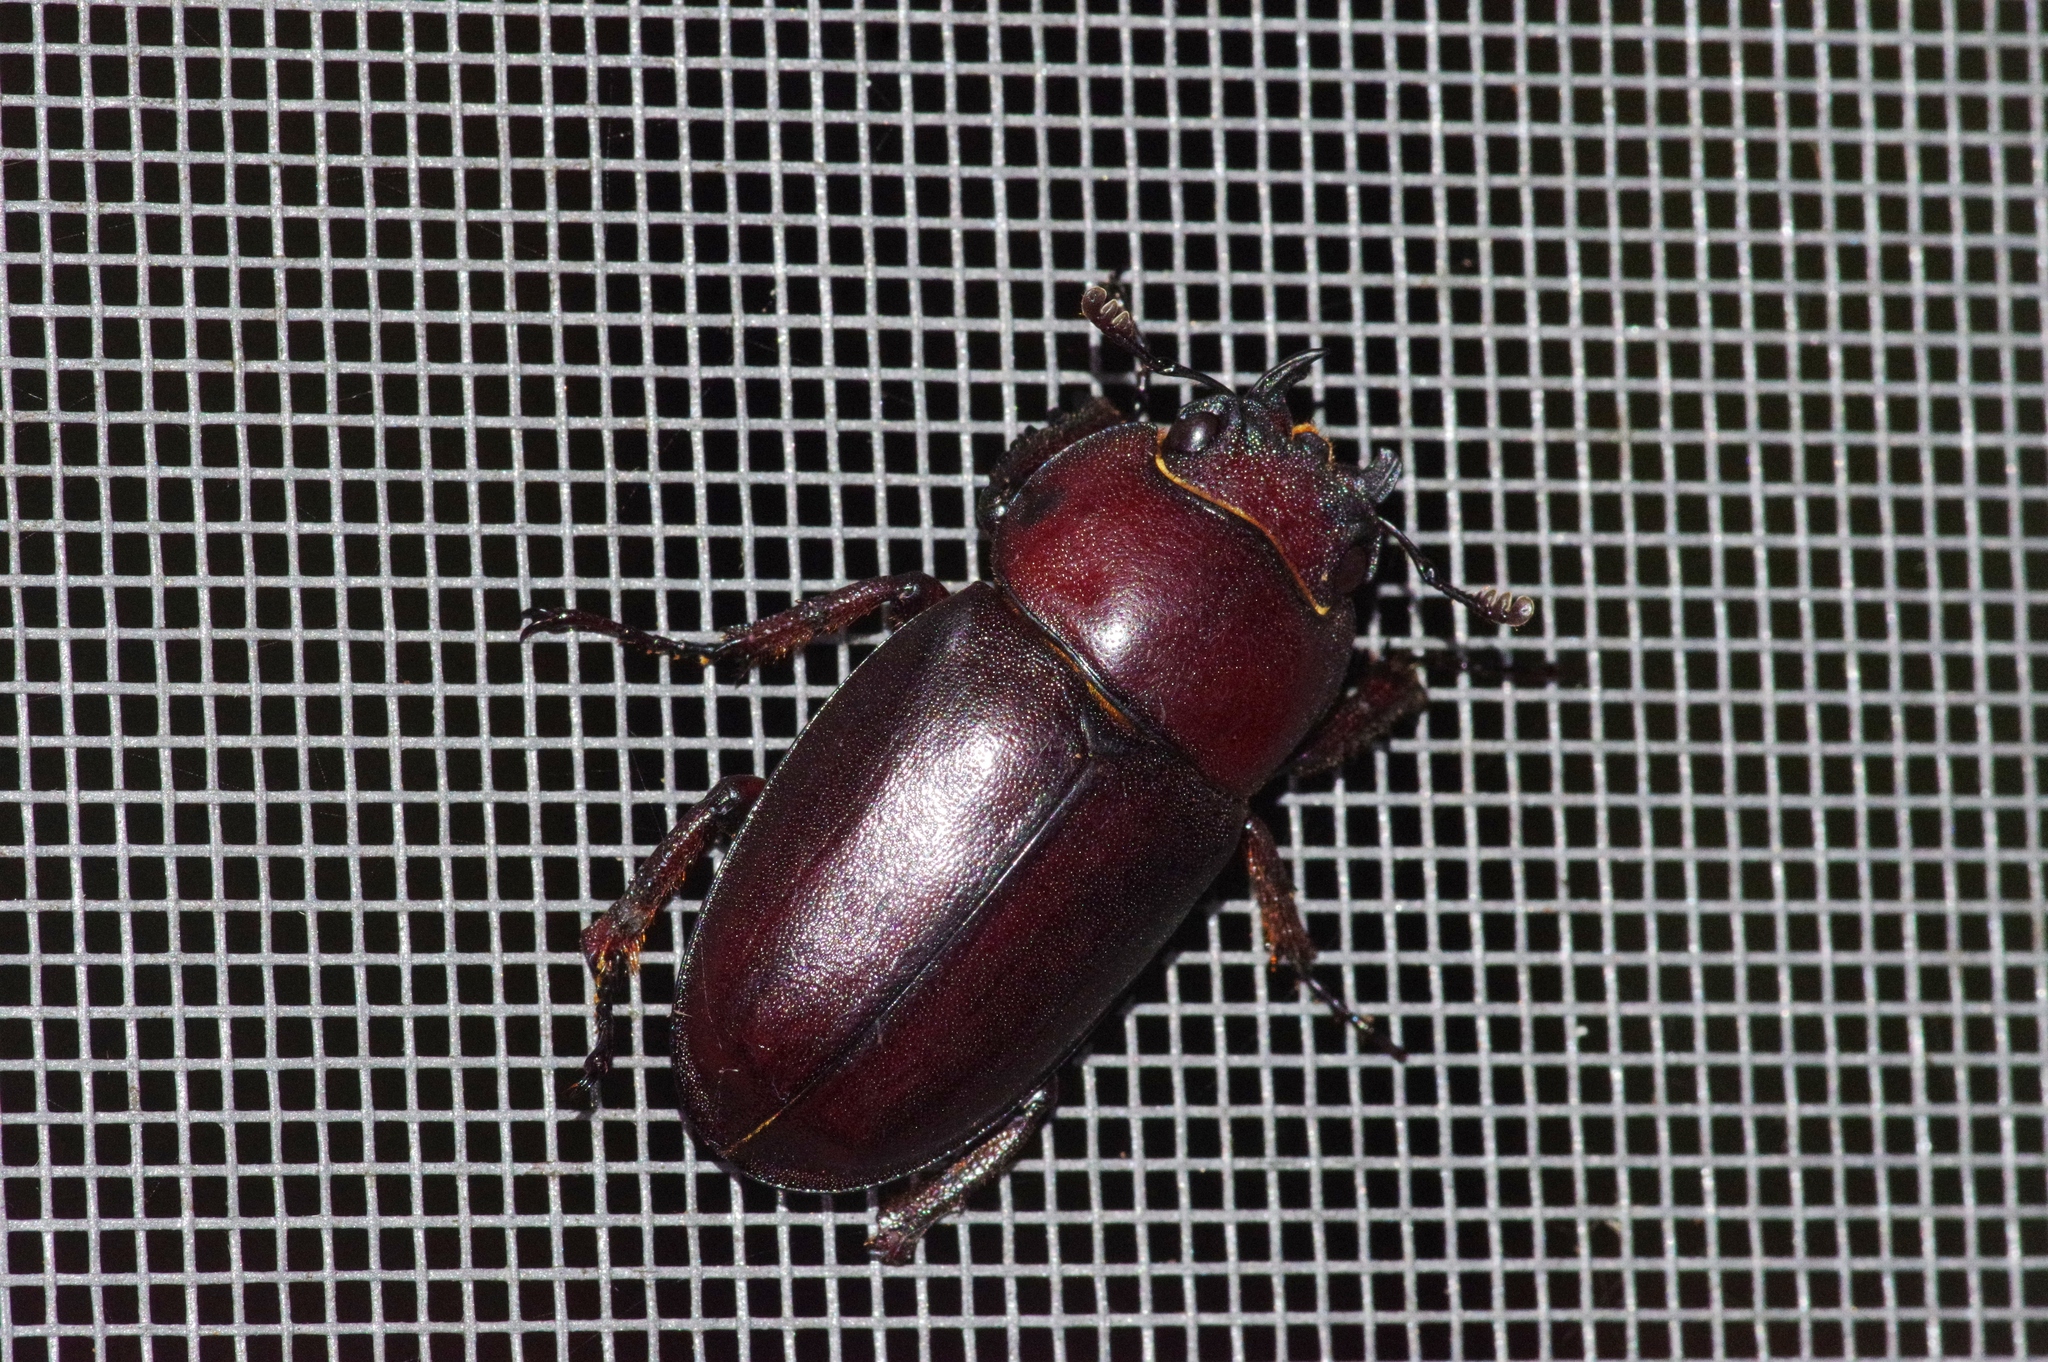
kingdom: Animalia
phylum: Arthropoda
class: Insecta
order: Coleoptera
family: Lucanidae
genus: Prosopocoilus
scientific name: Prosopocoilus dissimilis
